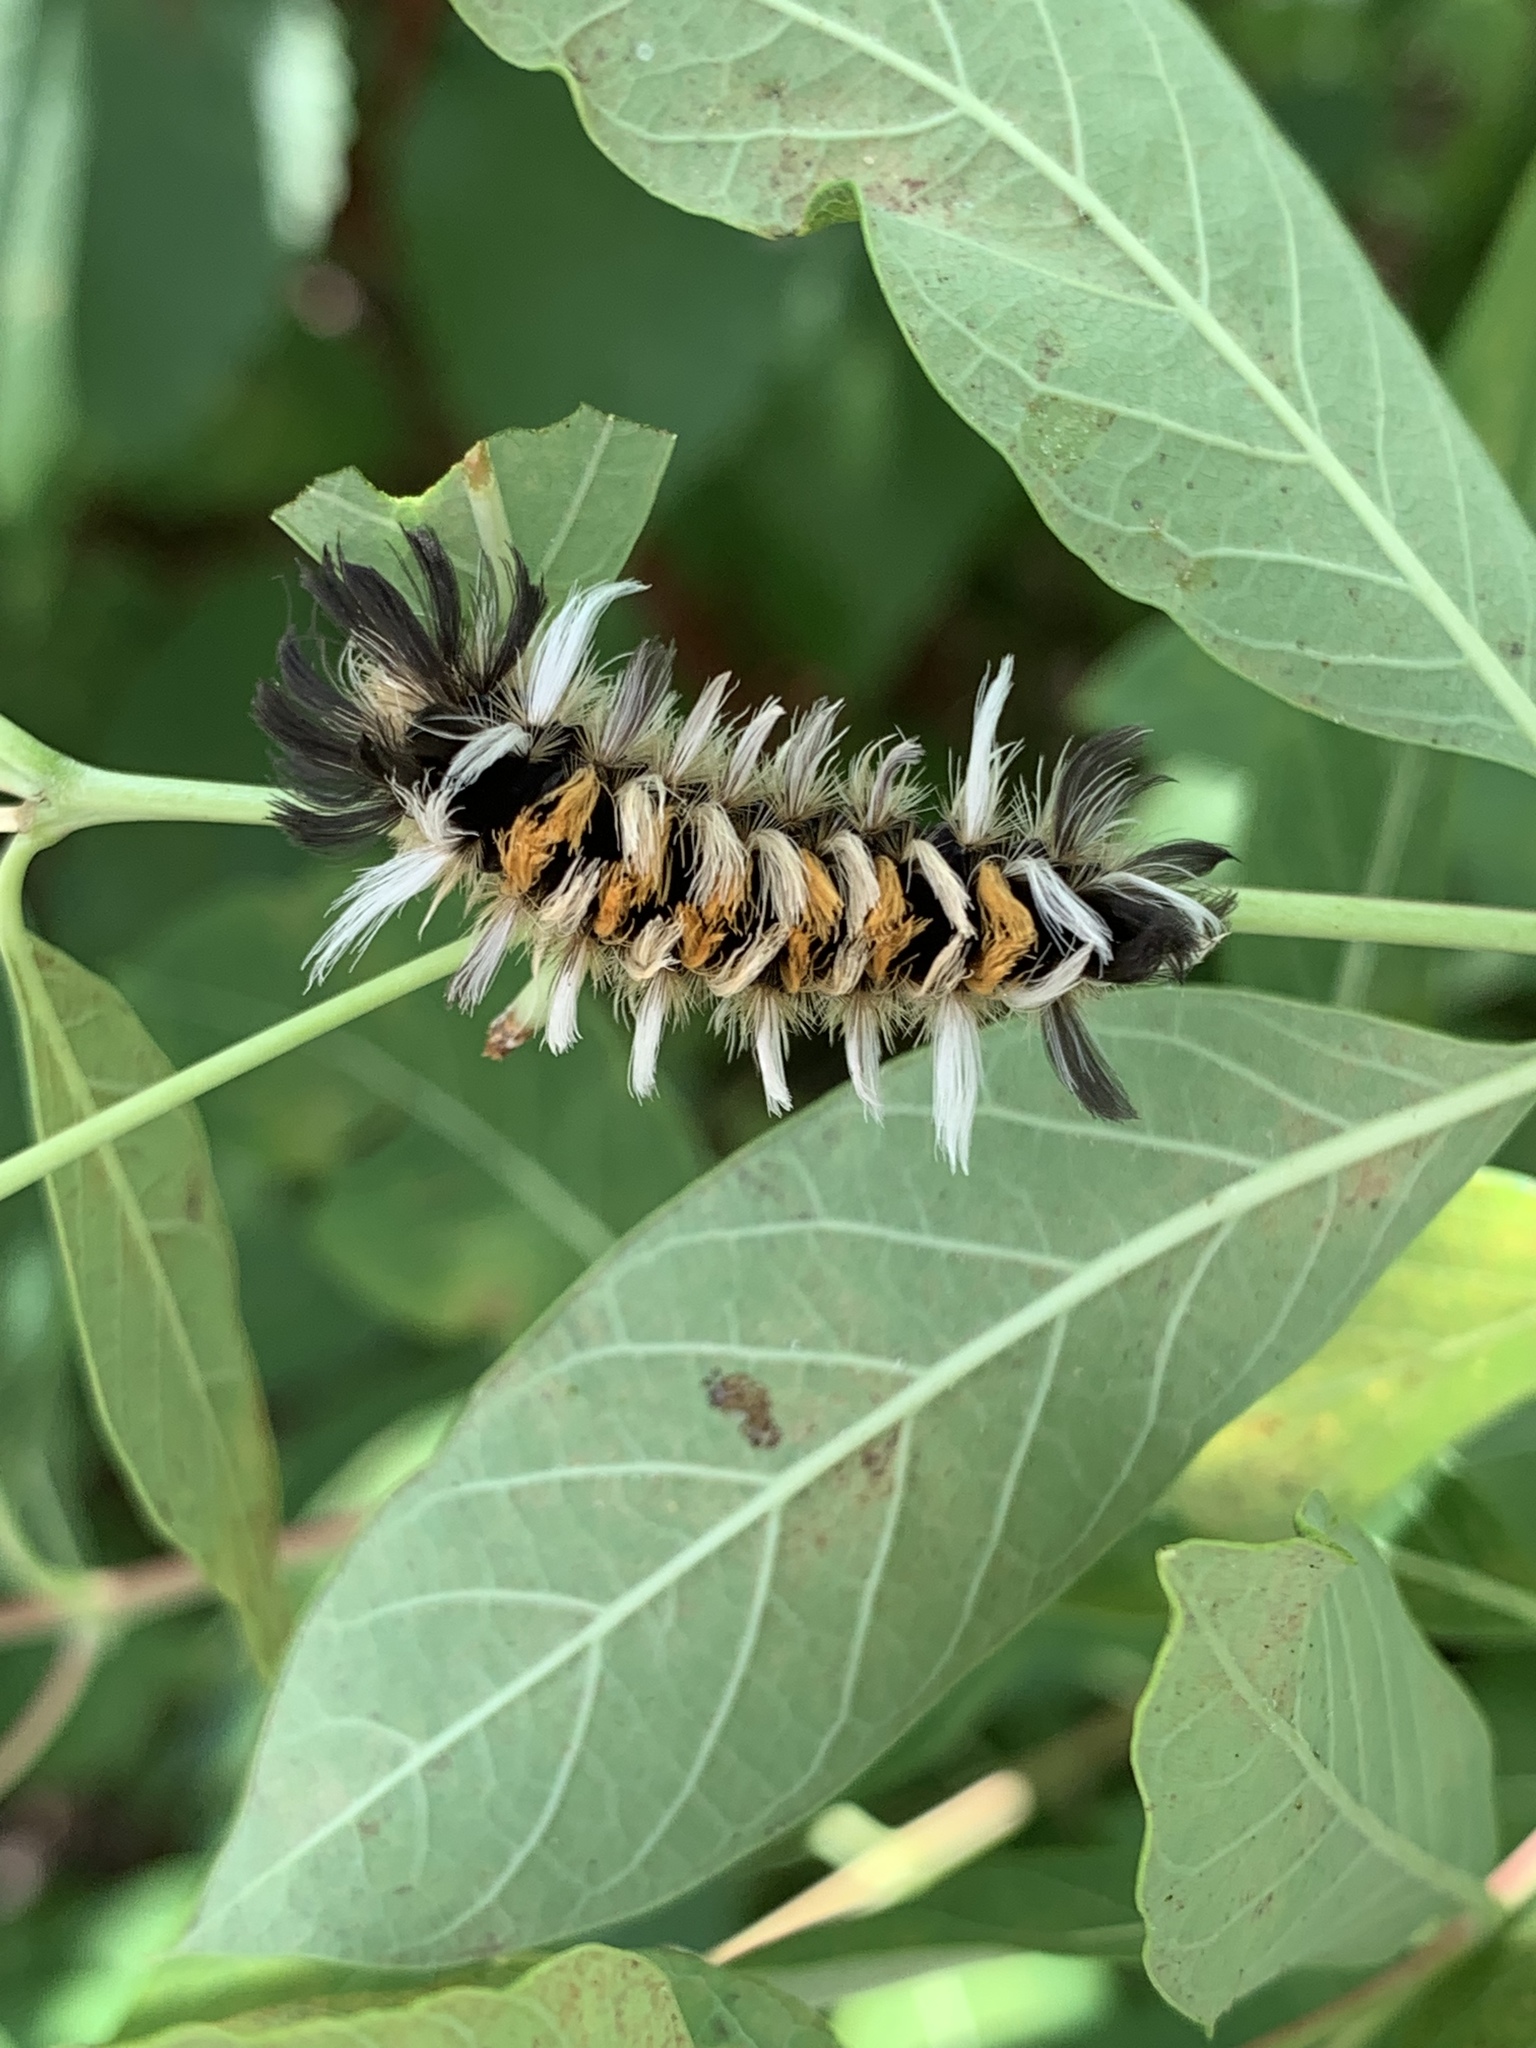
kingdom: Animalia
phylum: Arthropoda
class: Insecta
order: Lepidoptera
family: Erebidae
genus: Euchaetes
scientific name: Euchaetes egle
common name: Milkweed tussock moth
